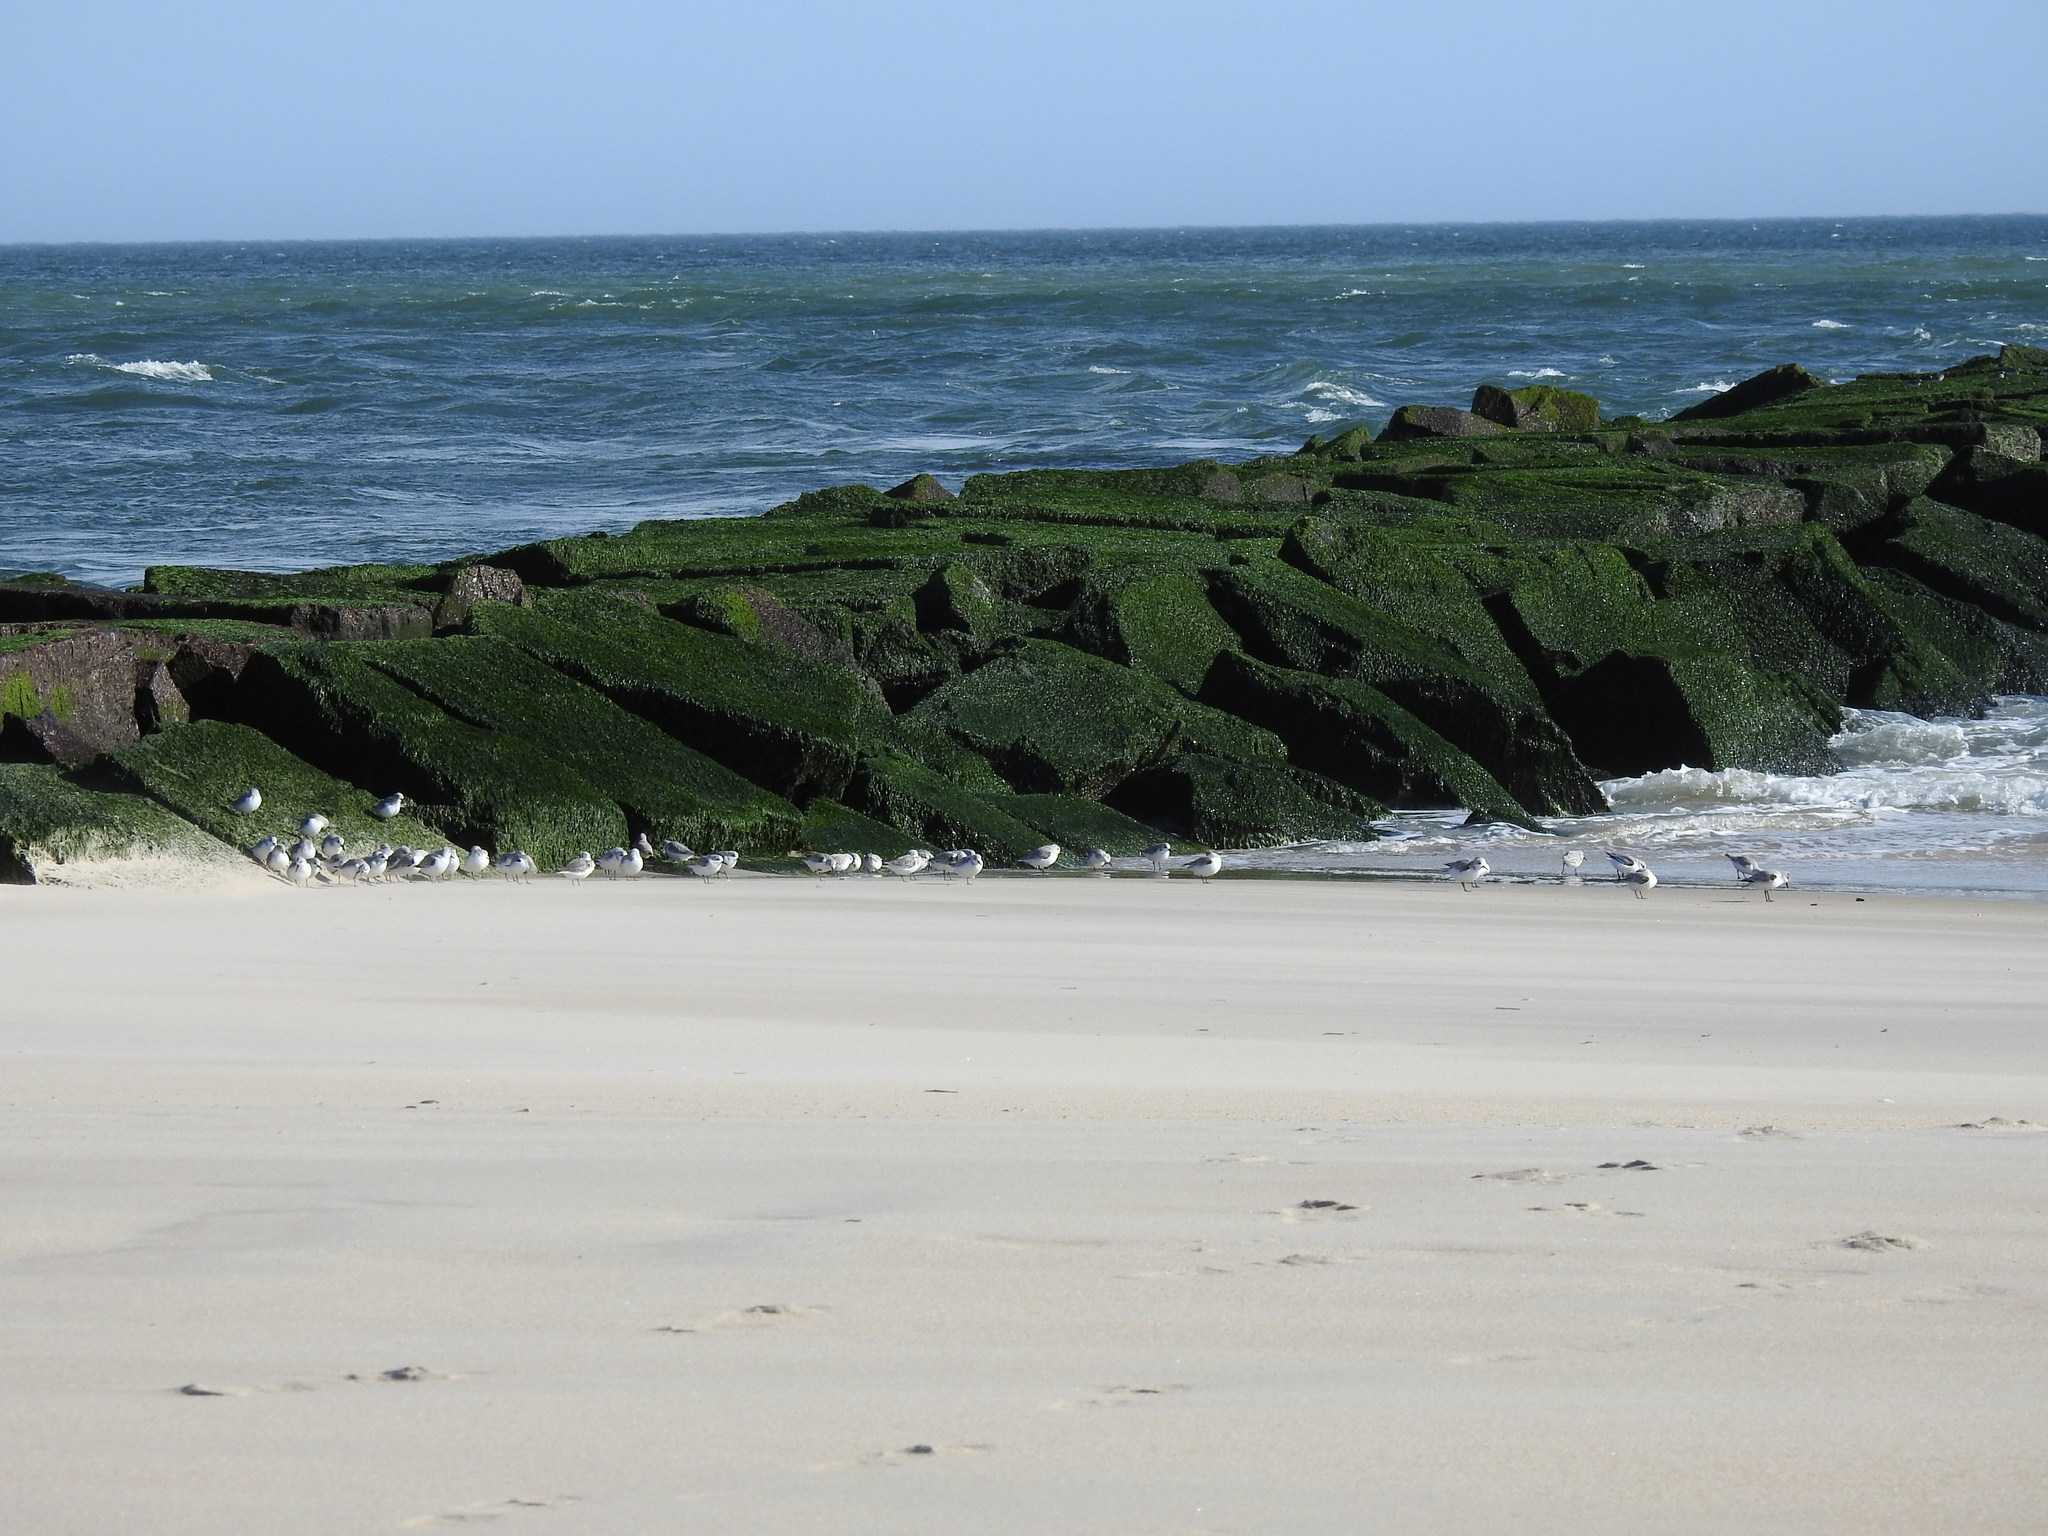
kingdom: Animalia
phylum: Chordata
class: Aves
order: Charadriiformes
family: Scolopacidae
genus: Calidris
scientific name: Calidris alba
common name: Sanderling
